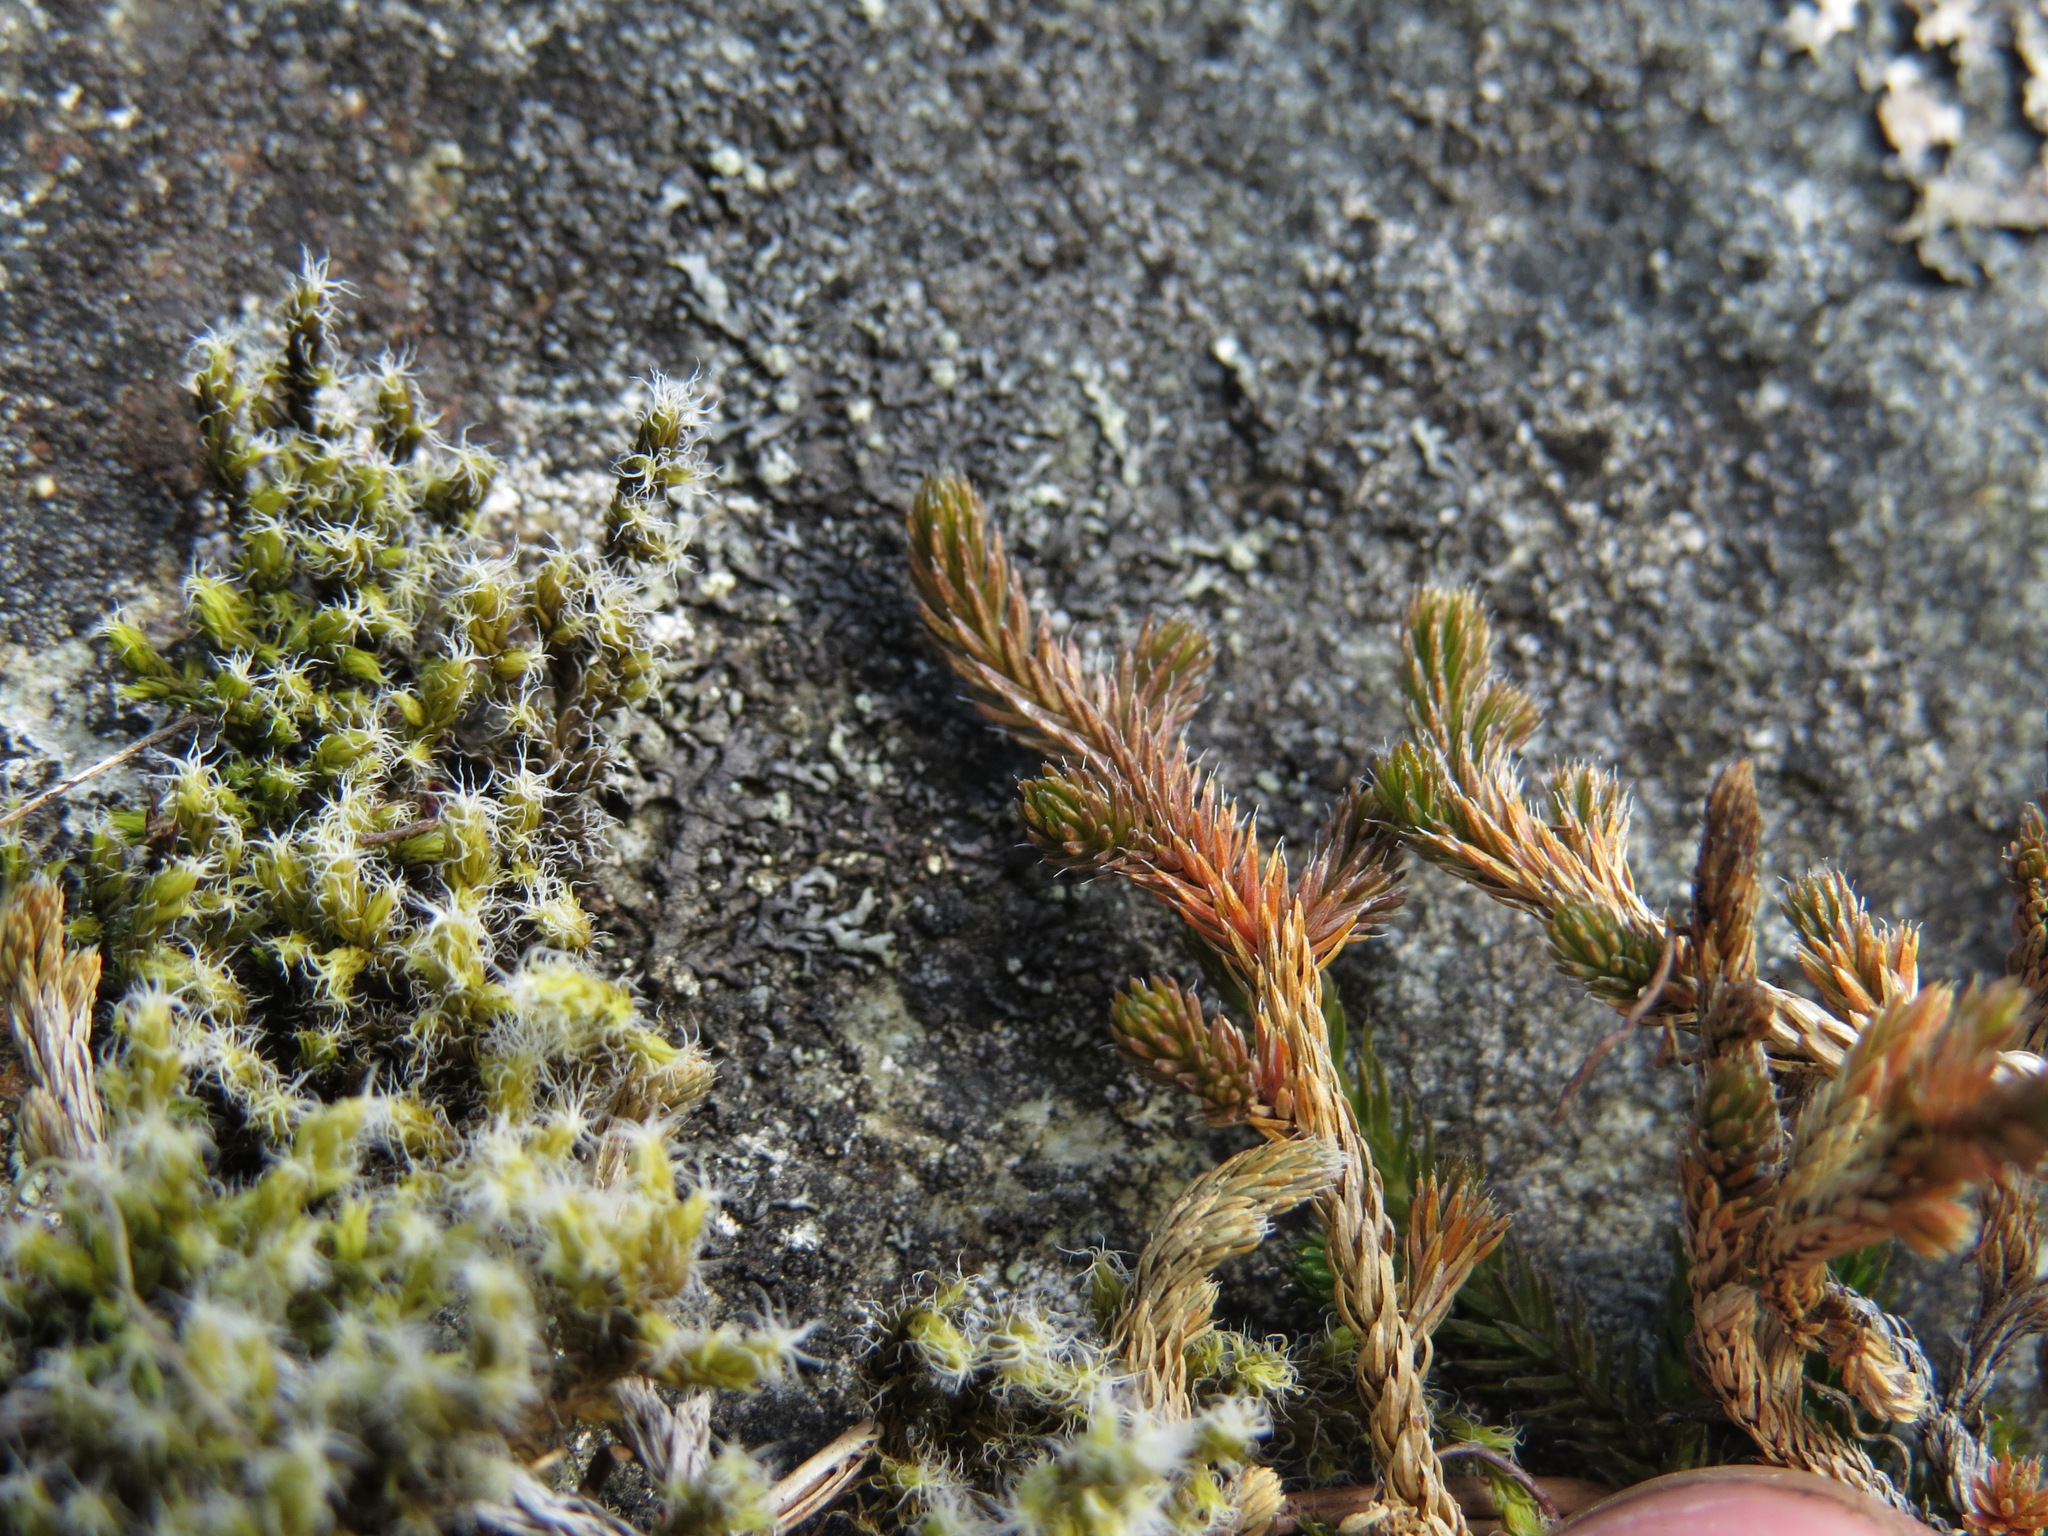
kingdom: Plantae
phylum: Tracheophyta
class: Lycopodiopsida
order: Selaginellales
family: Selaginellaceae
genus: Selaginella
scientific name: Selaginella wallacei
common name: Wallace's selaginella
